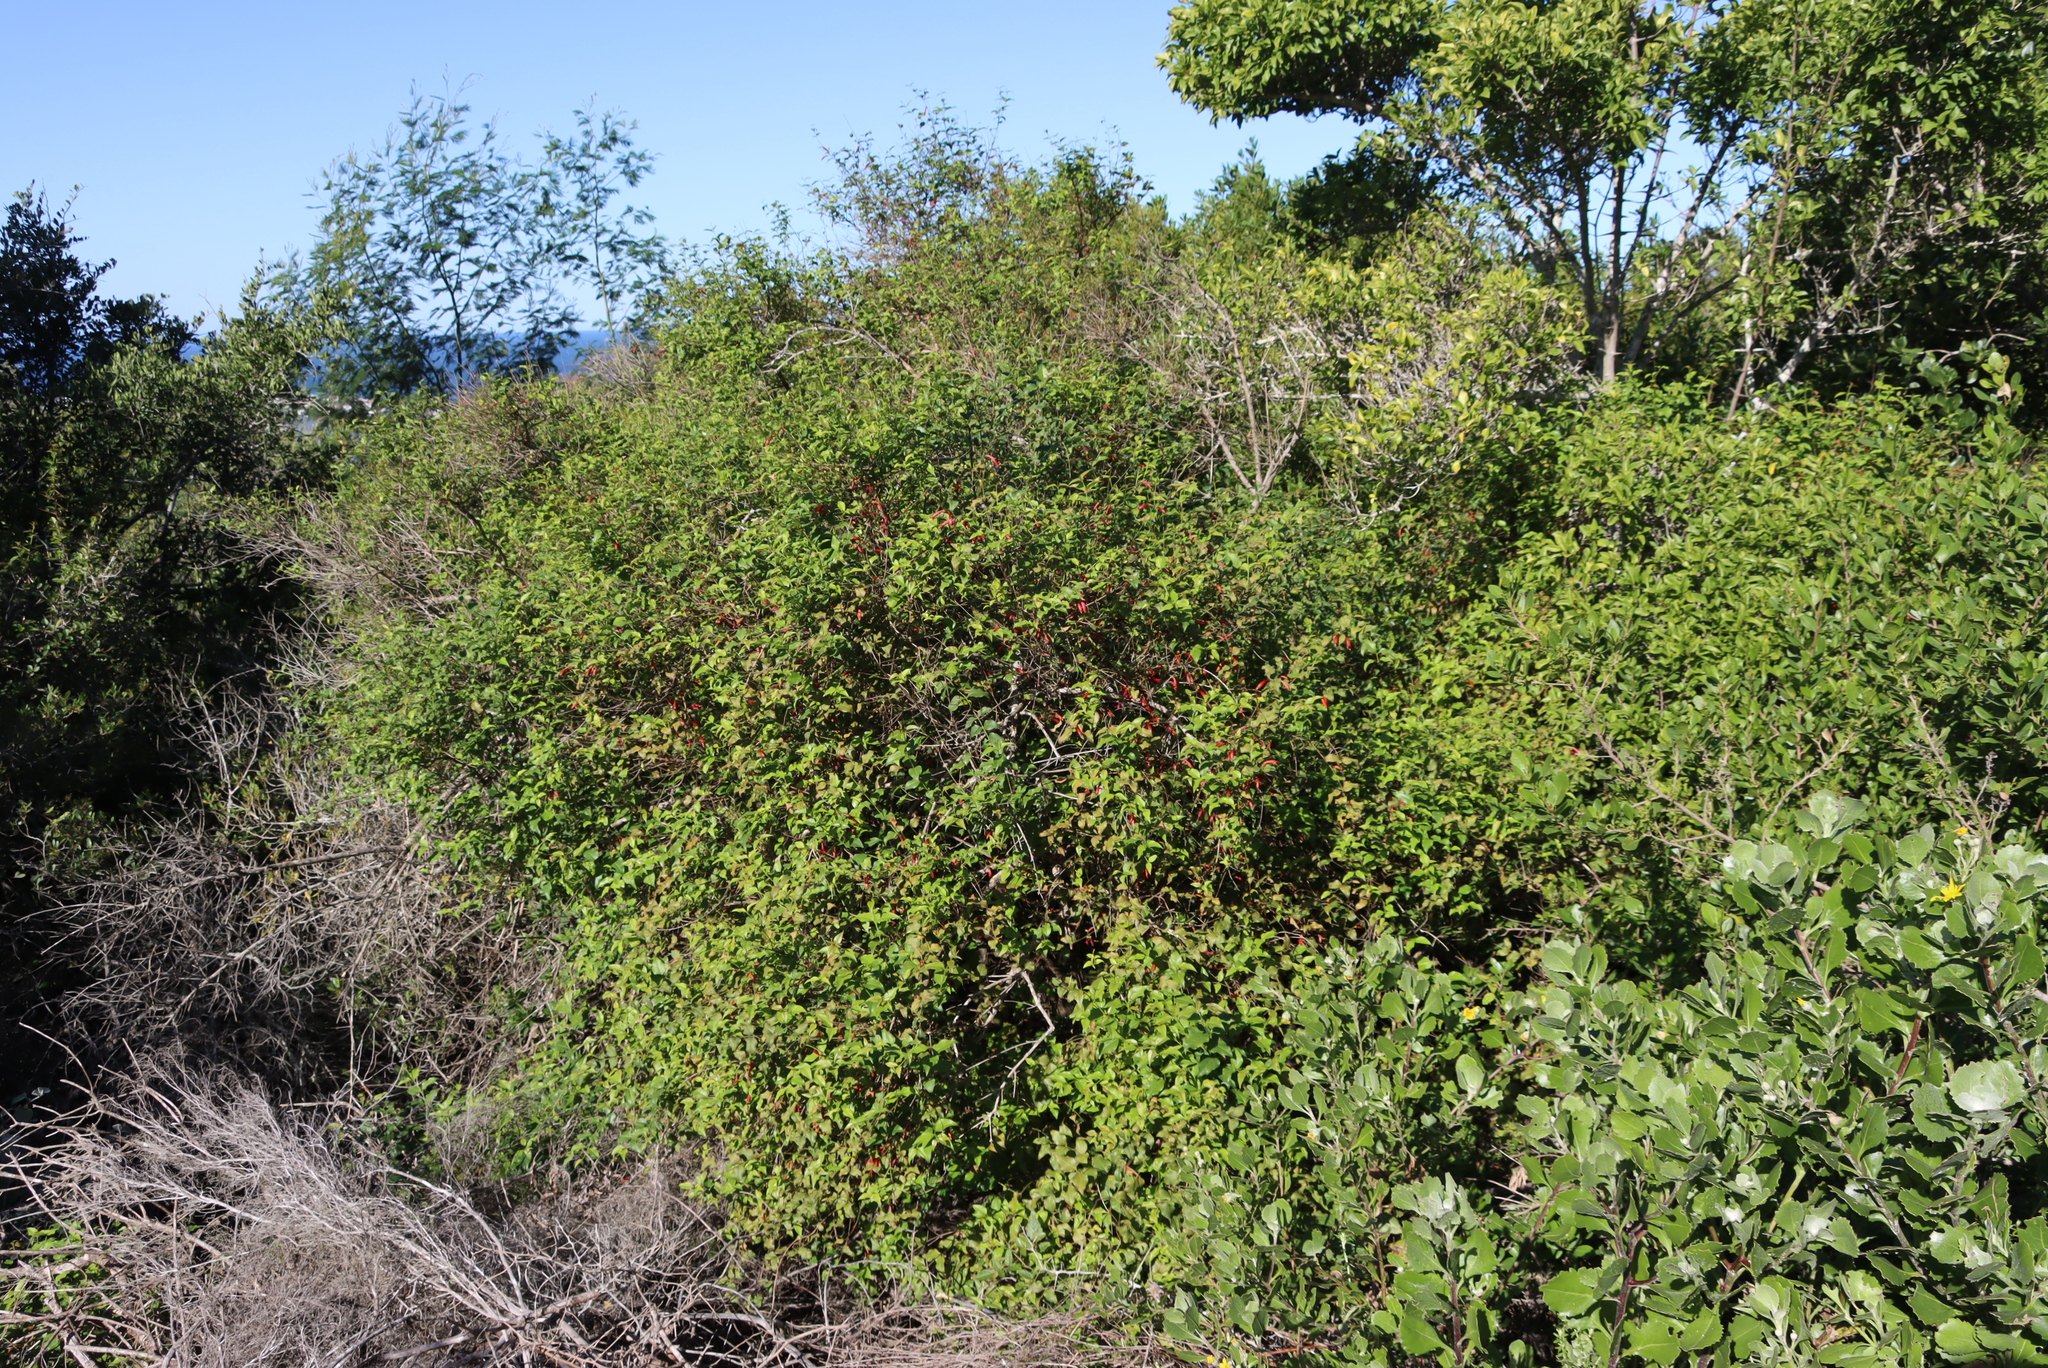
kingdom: Plantae
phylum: Tracheophyta
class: Magnoliopsida
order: Lamiales
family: Stilbaceae
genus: Halleria
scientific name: Halleria lucida
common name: Tree fuschia
